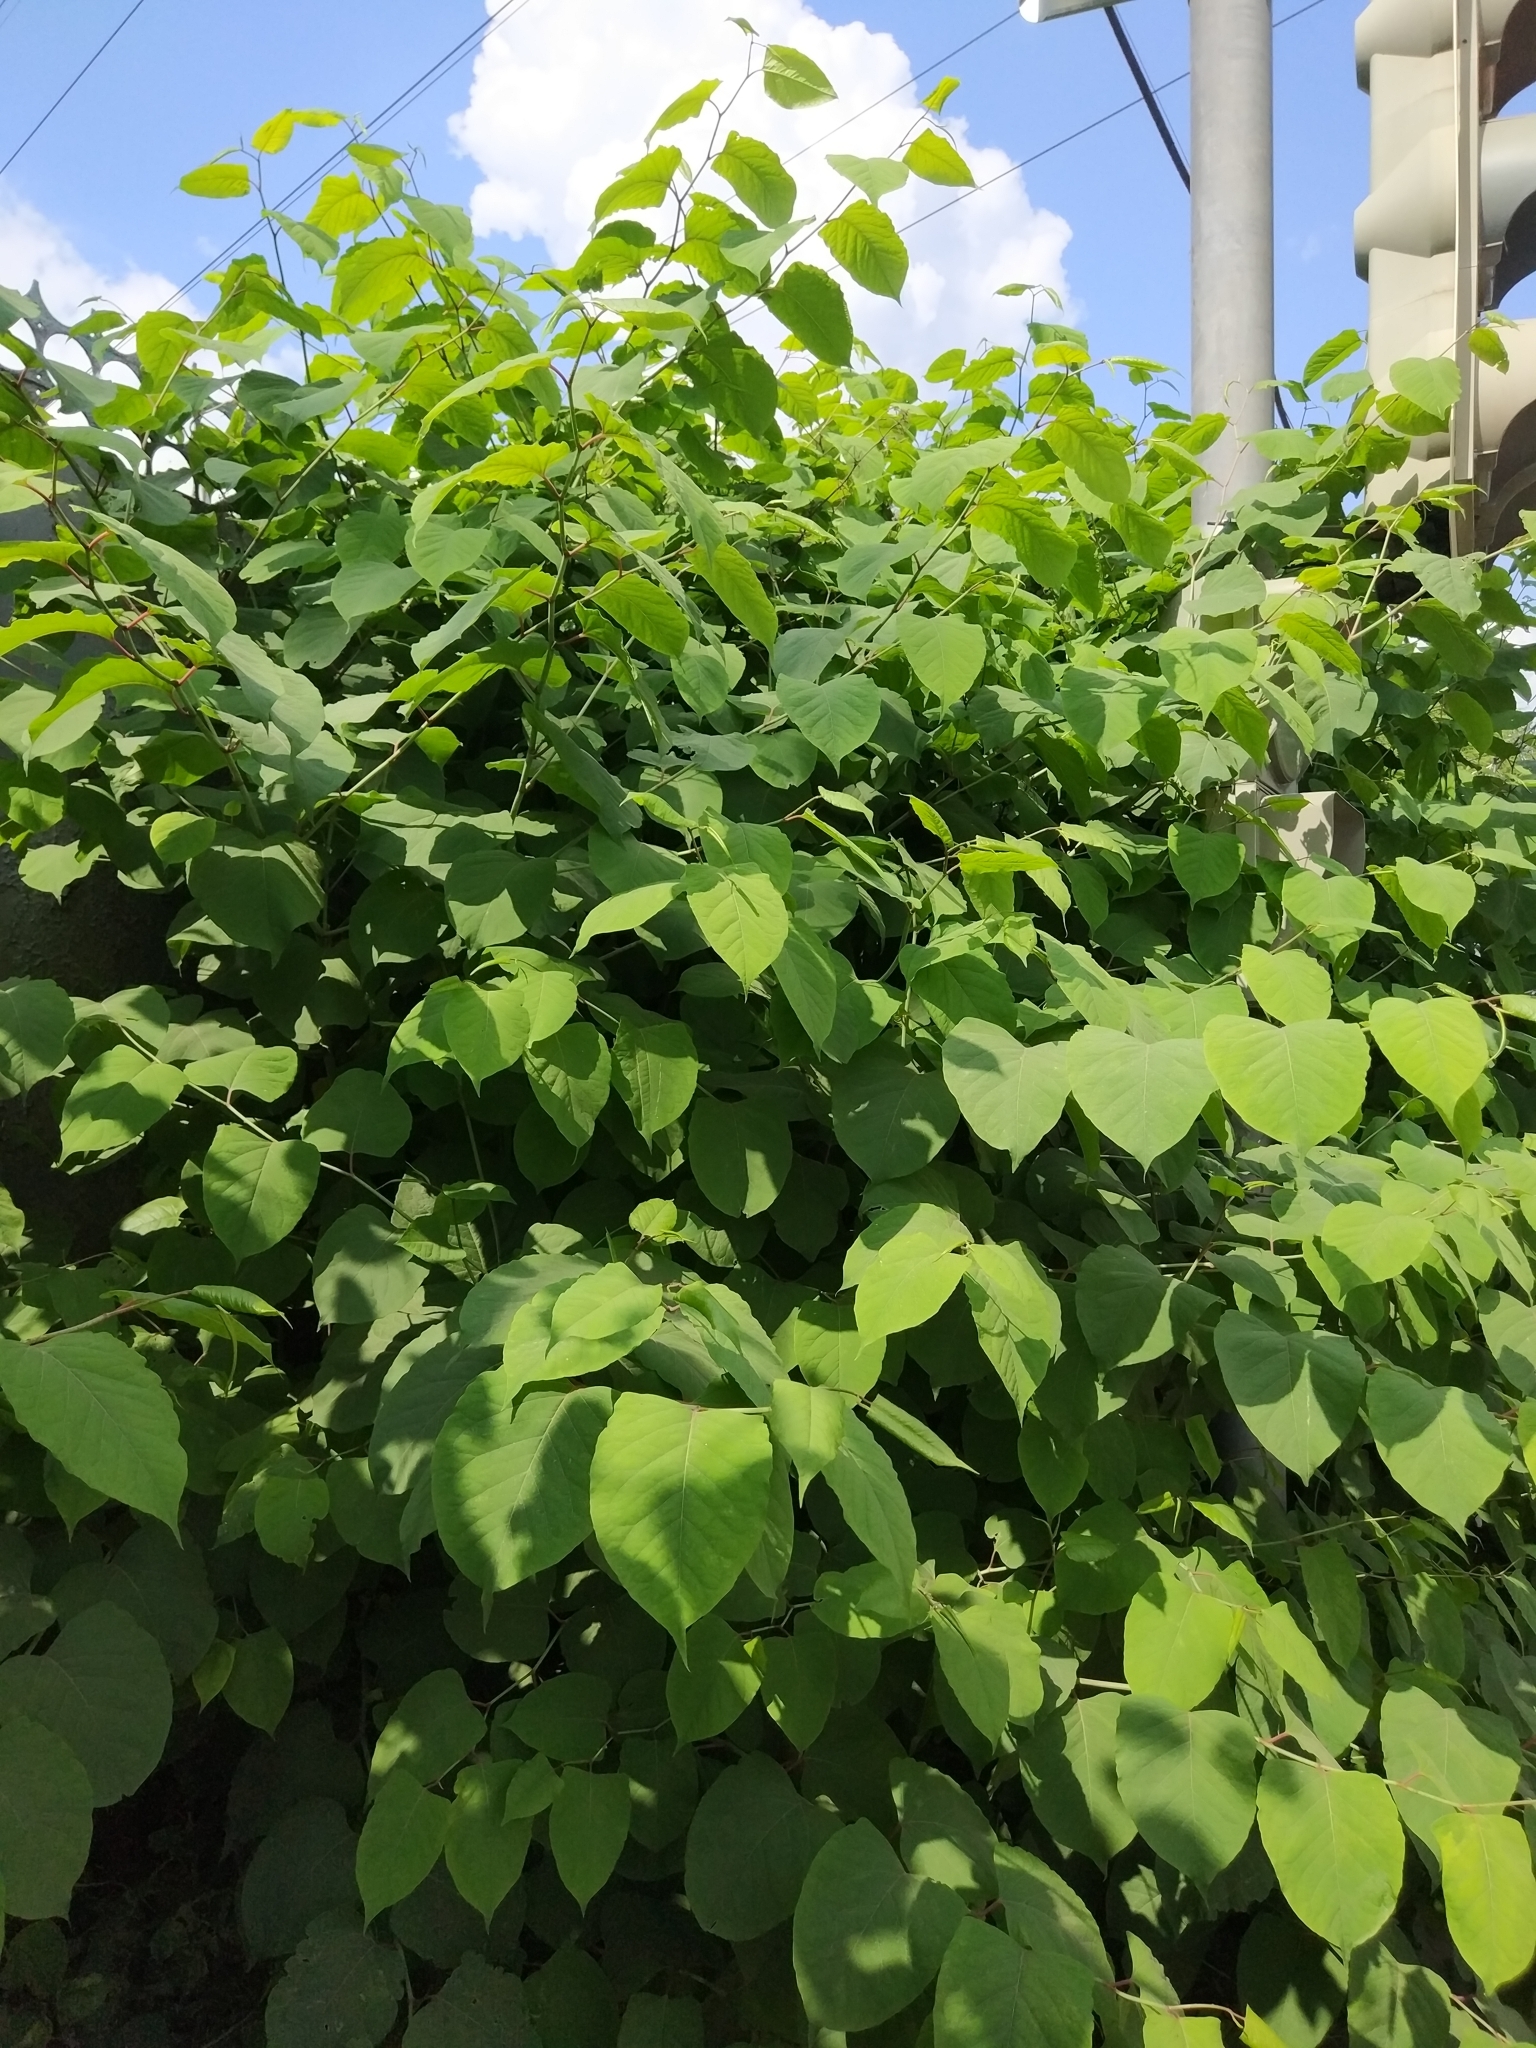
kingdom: Plantae
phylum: Tracheophyta
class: Magnoliopsida
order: Caryophyllales
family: Polygonaceae
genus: Reynoutria
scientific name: Reynoutria bohemica
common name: Bohemian knotweed
